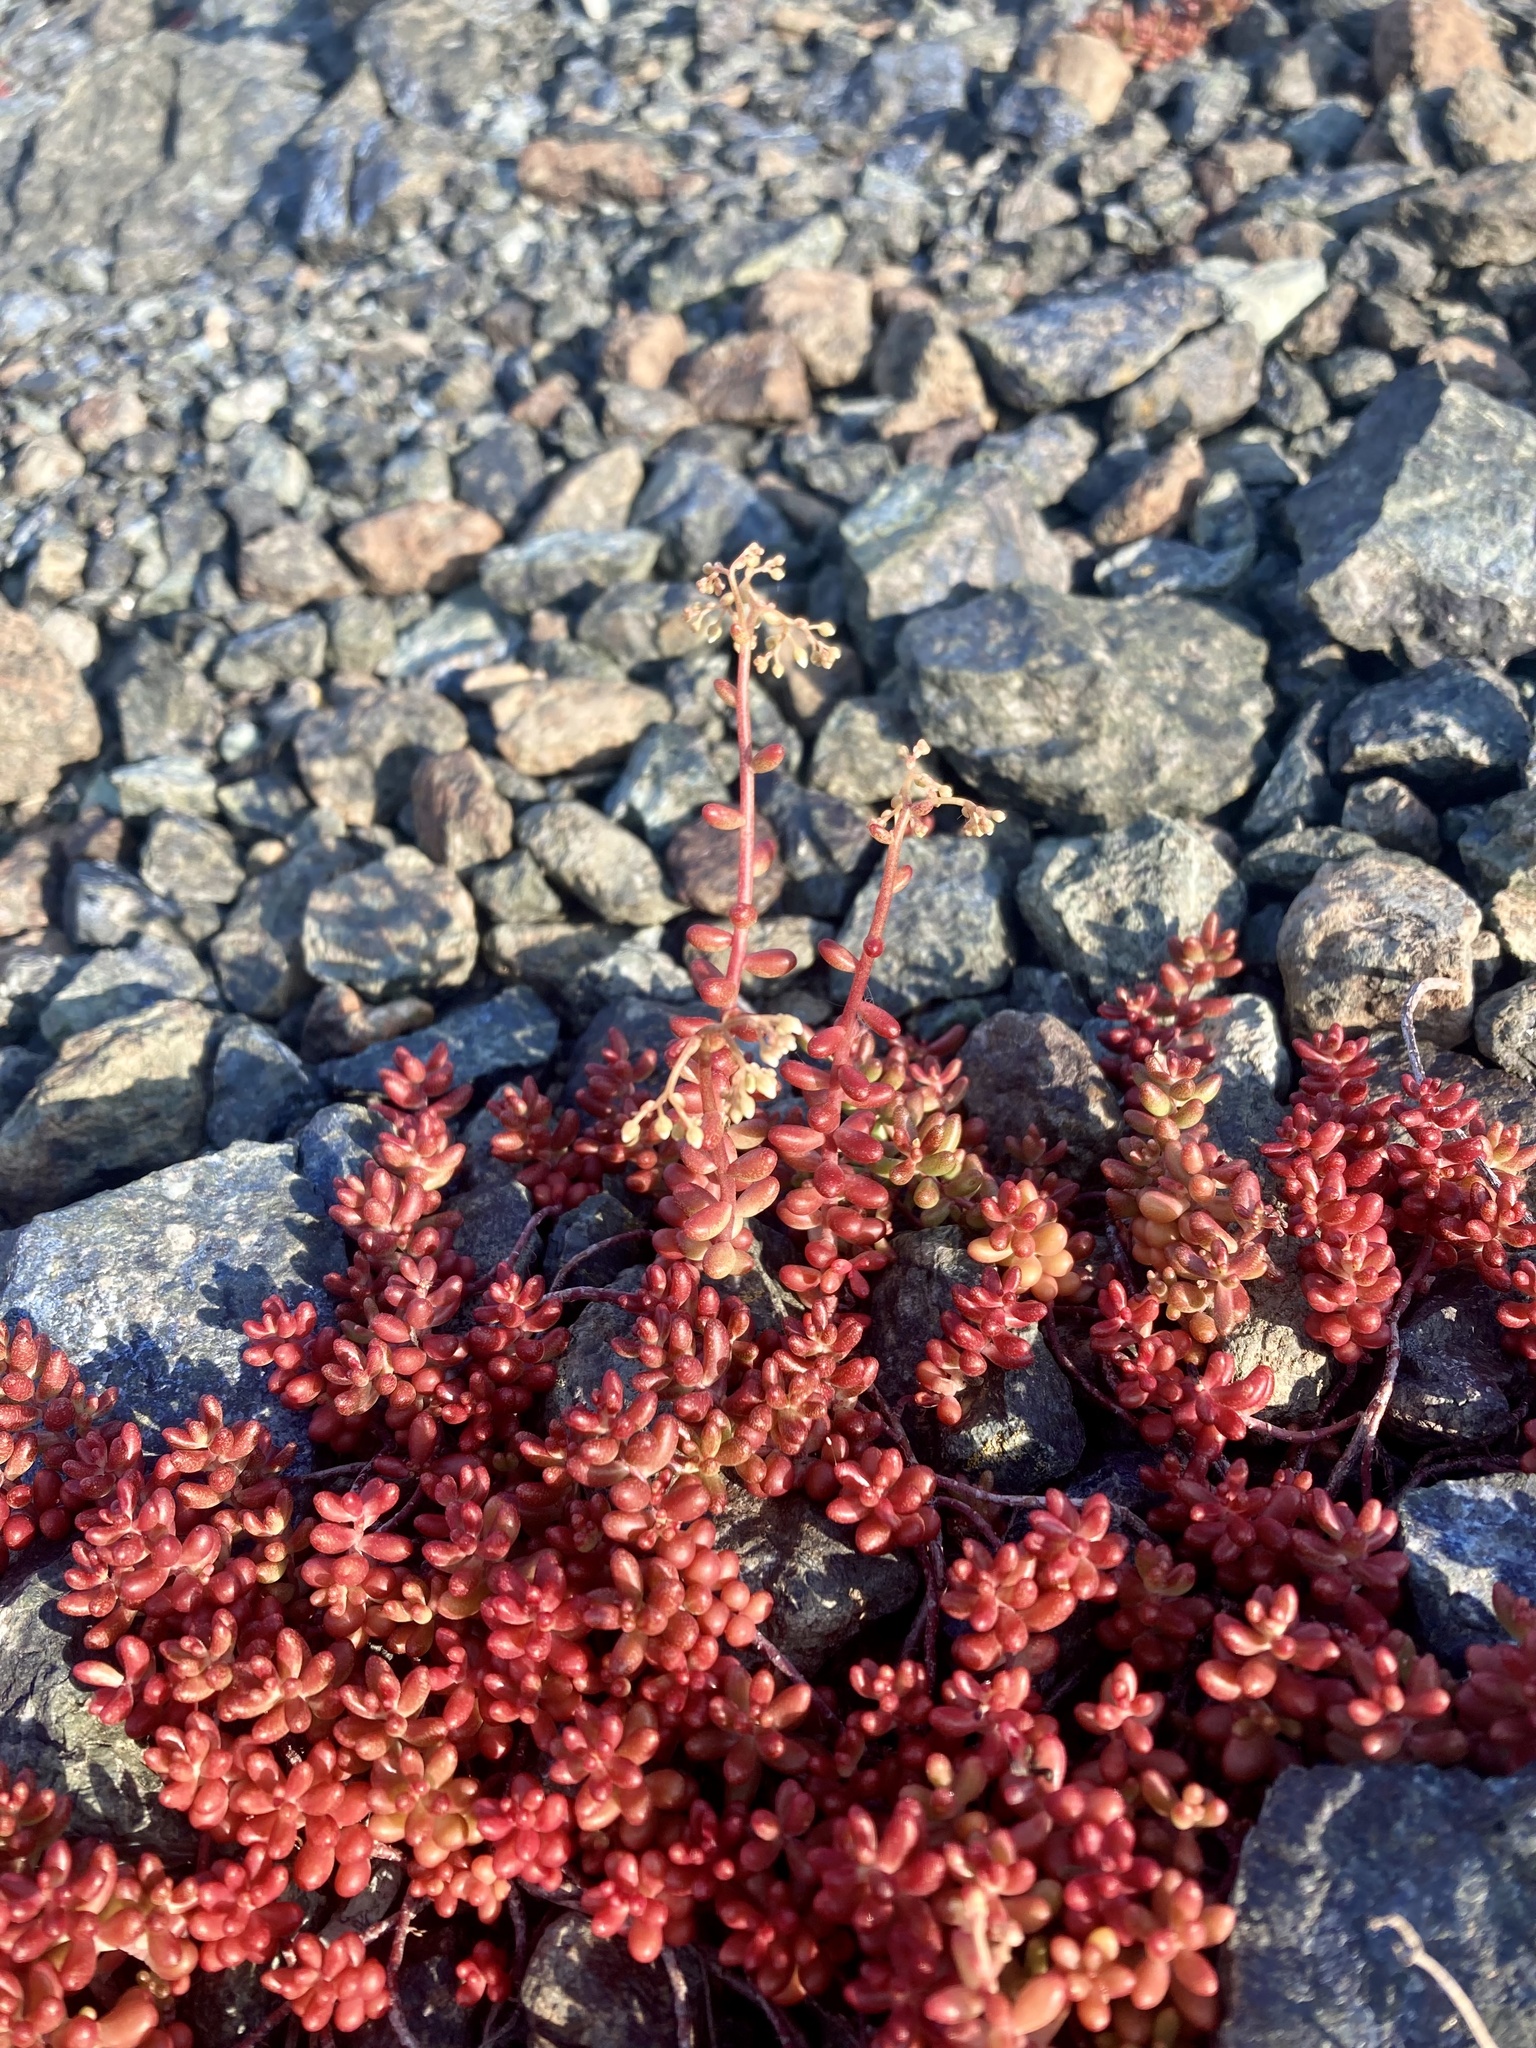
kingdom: Plantae
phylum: Tracheophyta
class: Magnoliopsida
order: Saxifragales
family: Crassulaceae
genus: Sedum
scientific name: Sedum album
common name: White stonecrop
